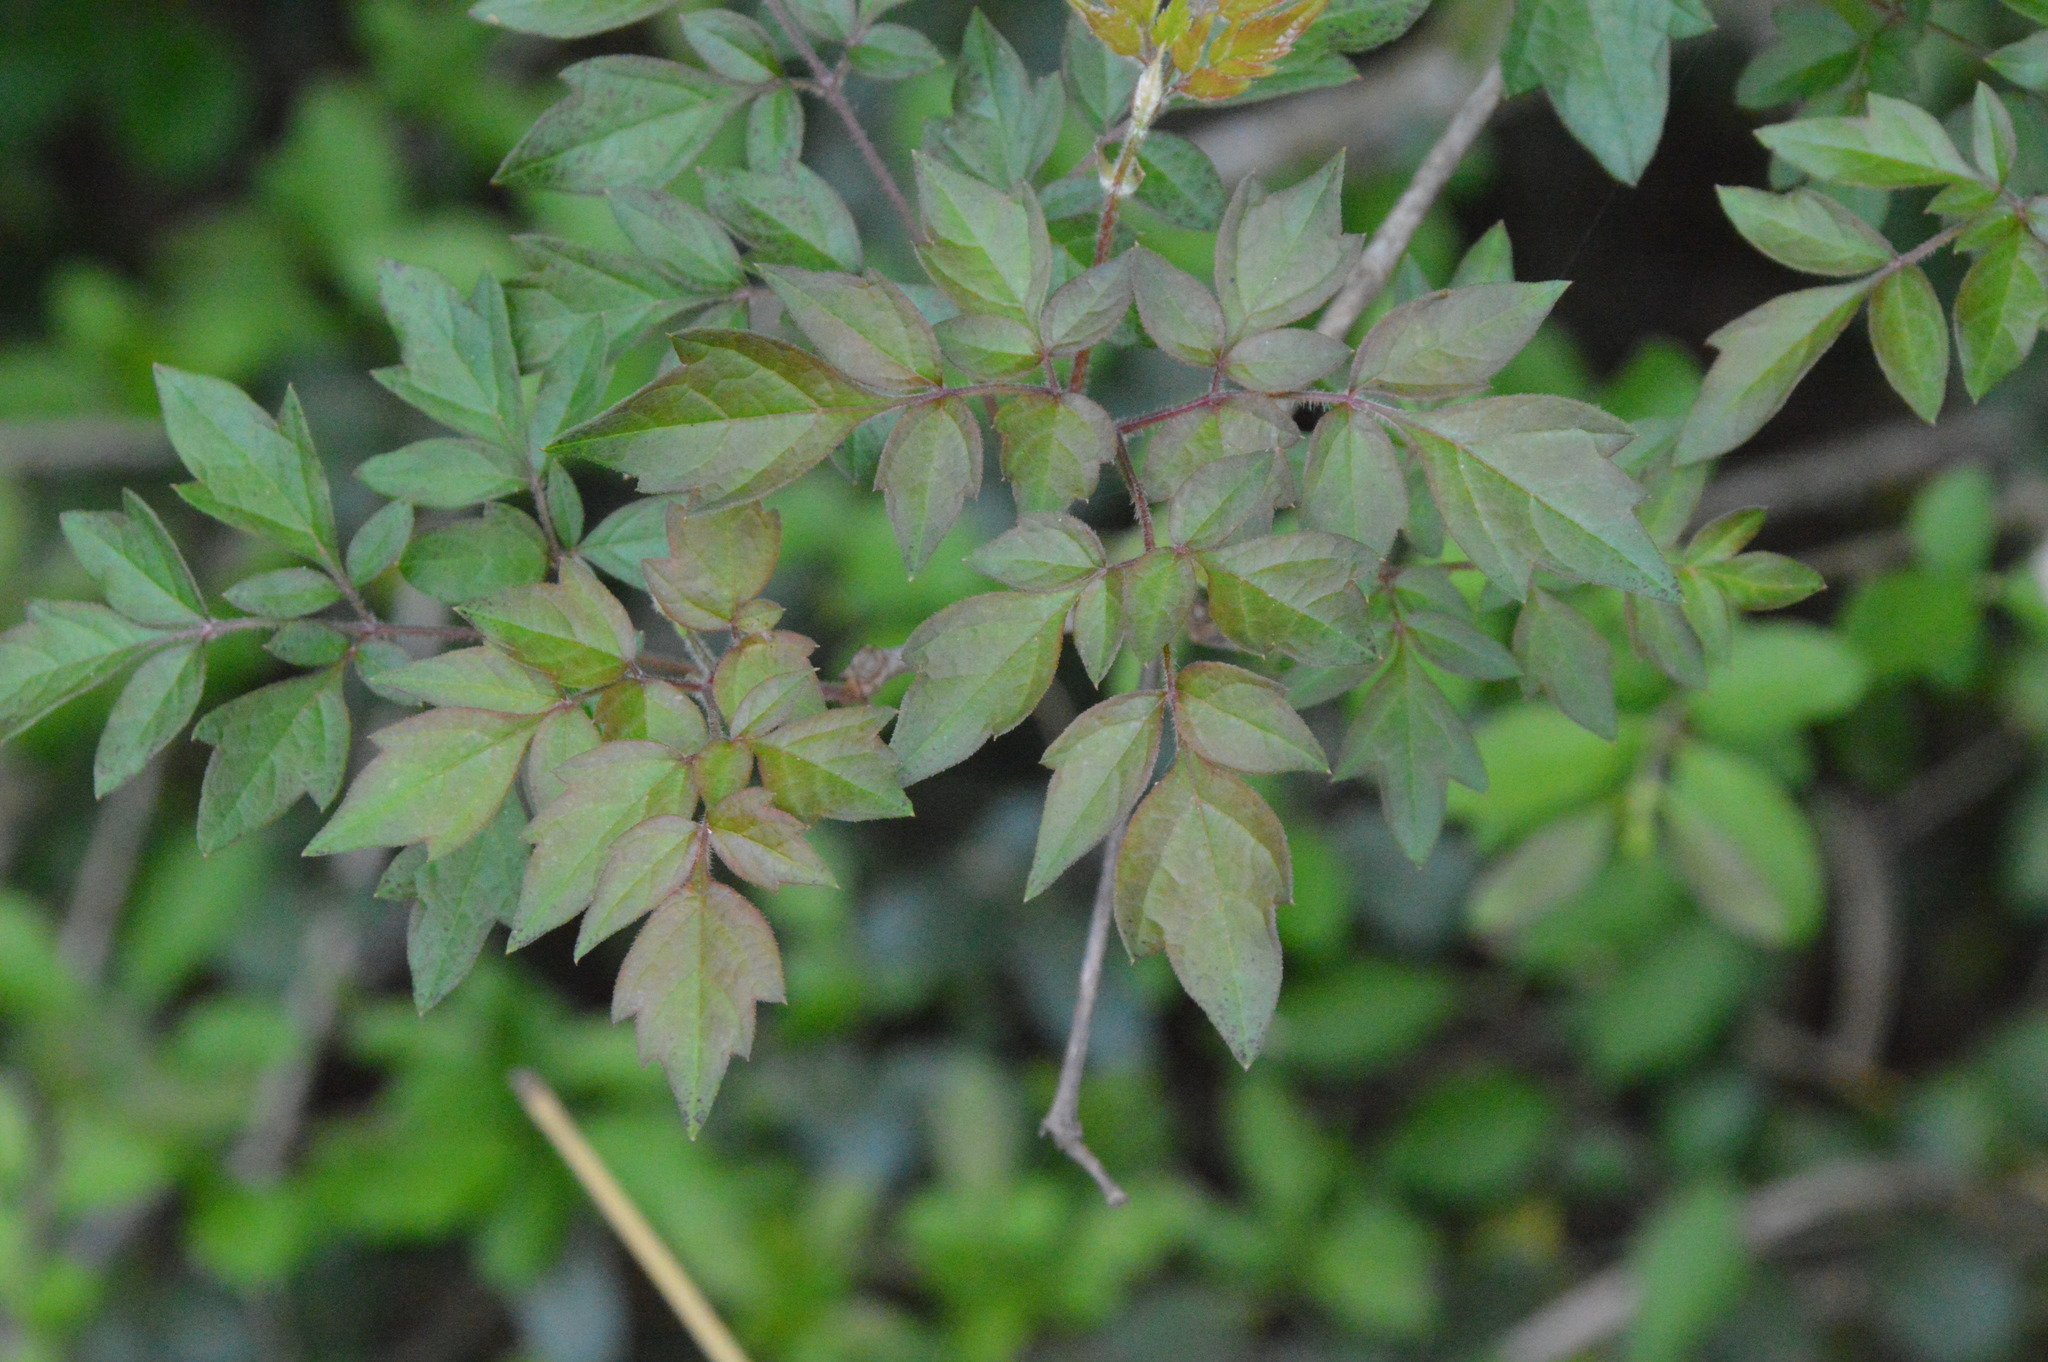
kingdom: Plantae
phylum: Tracheophyta
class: Magnoliopsida
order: Vitales
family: Vitaceae
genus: Nekemias
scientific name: Nekemias arborea
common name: Peppervine
